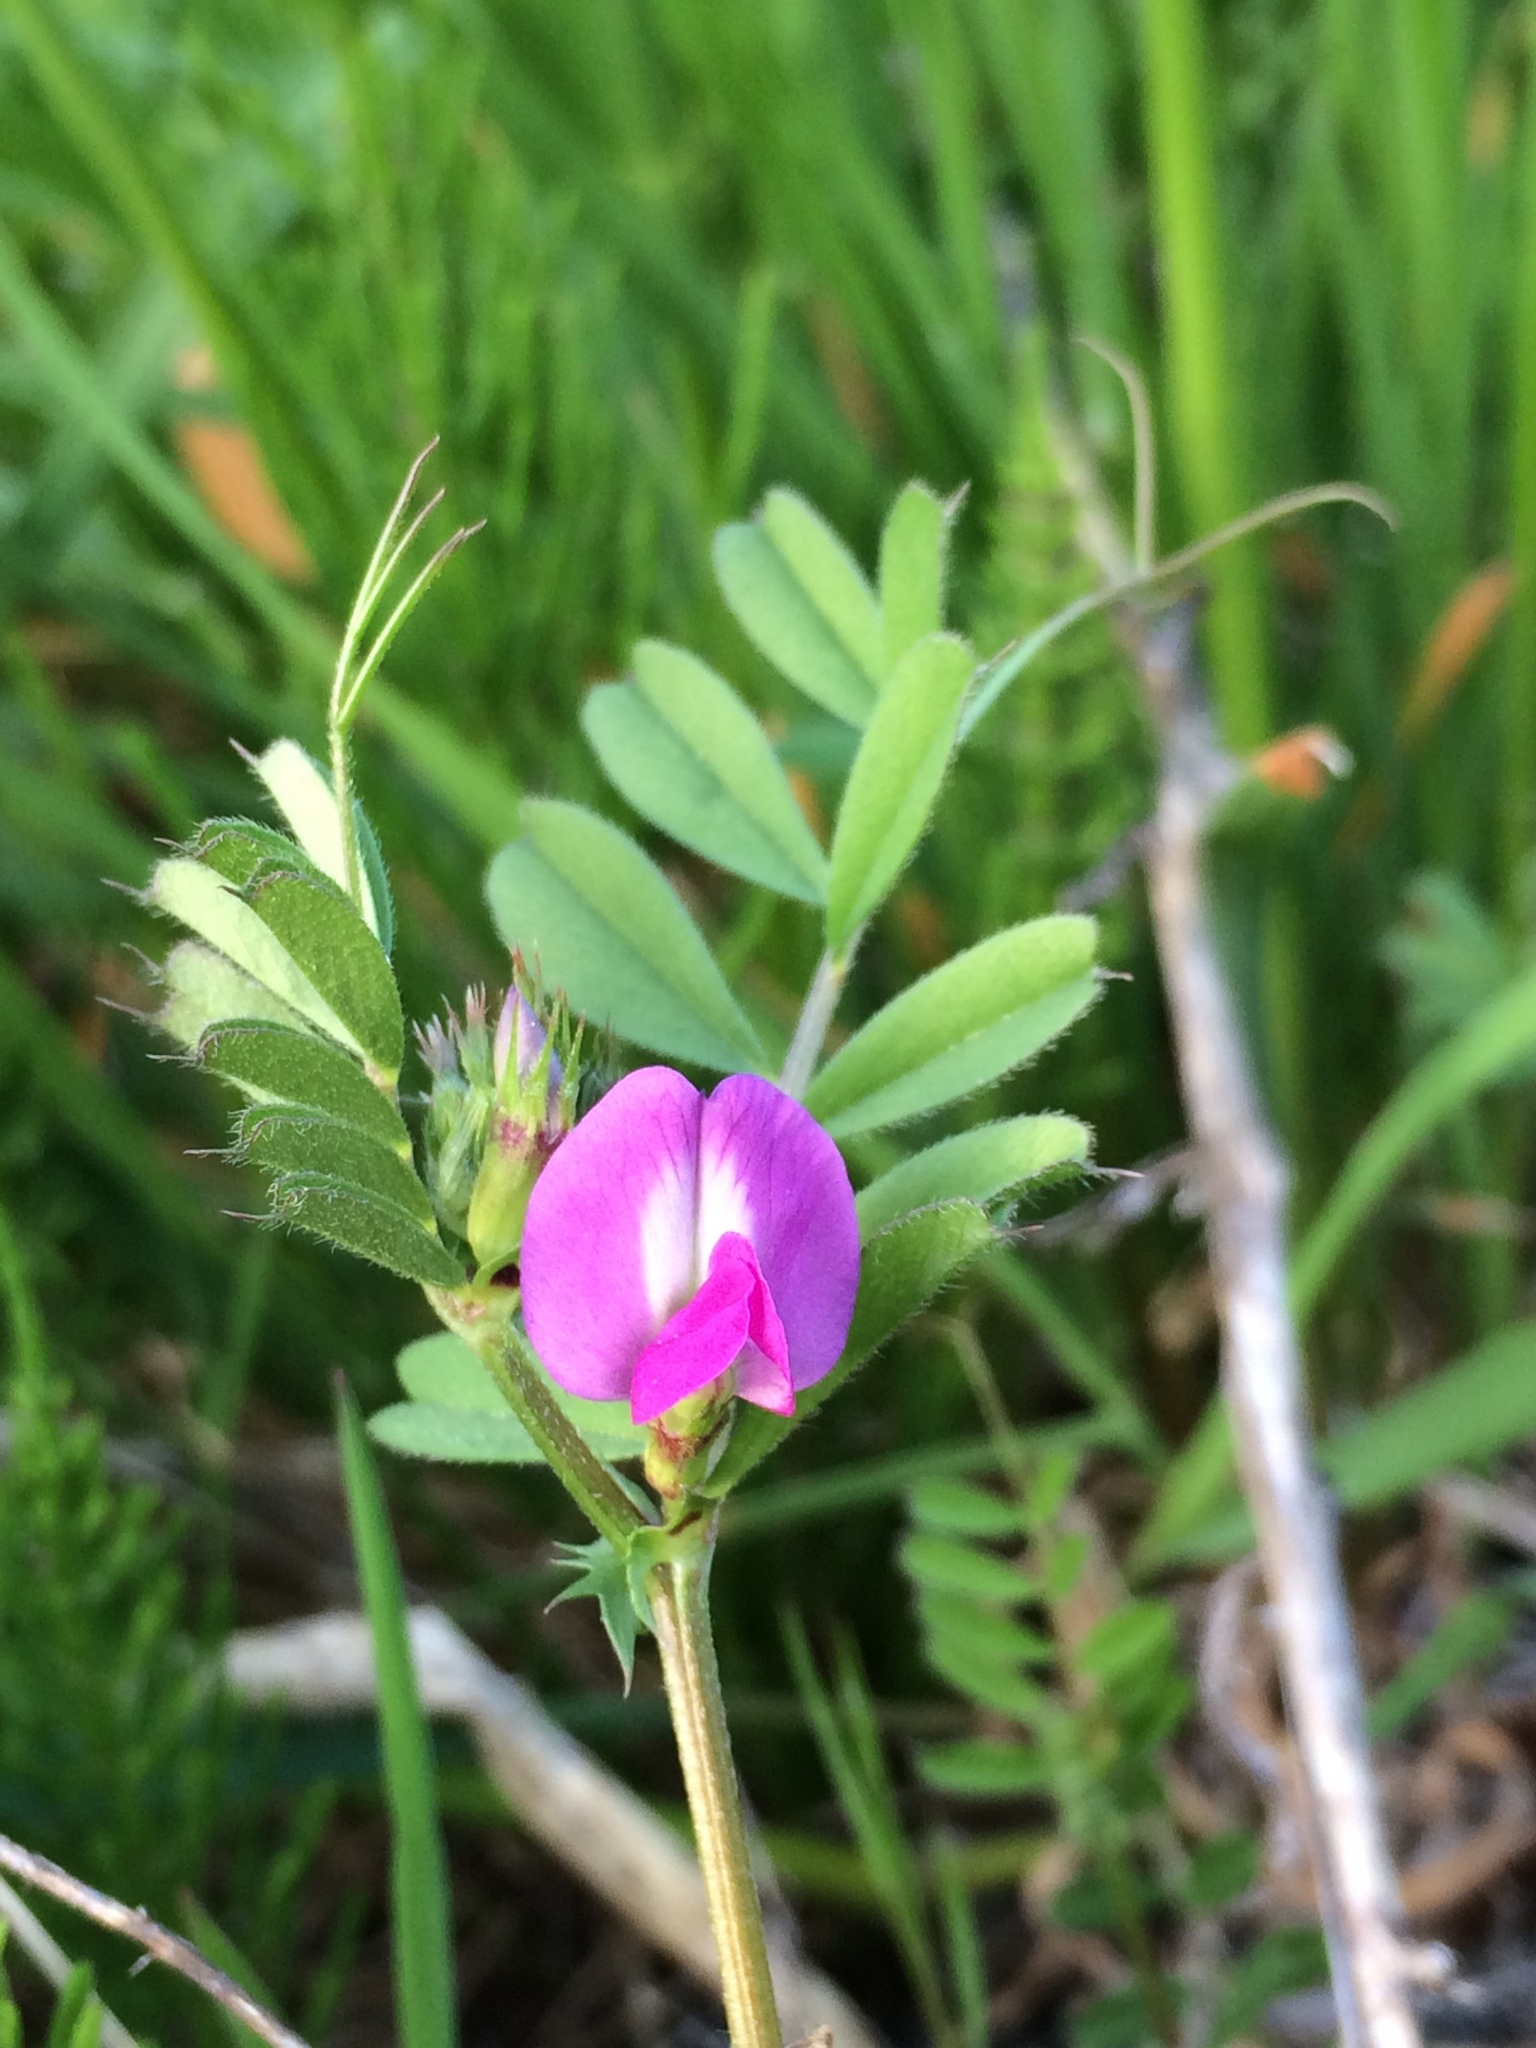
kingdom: Plantae
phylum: Tracheophyta
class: Magnoliopsida
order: Fabales
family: Fabaceae
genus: Vicia
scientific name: Vicia sativa
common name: Garden vetch
